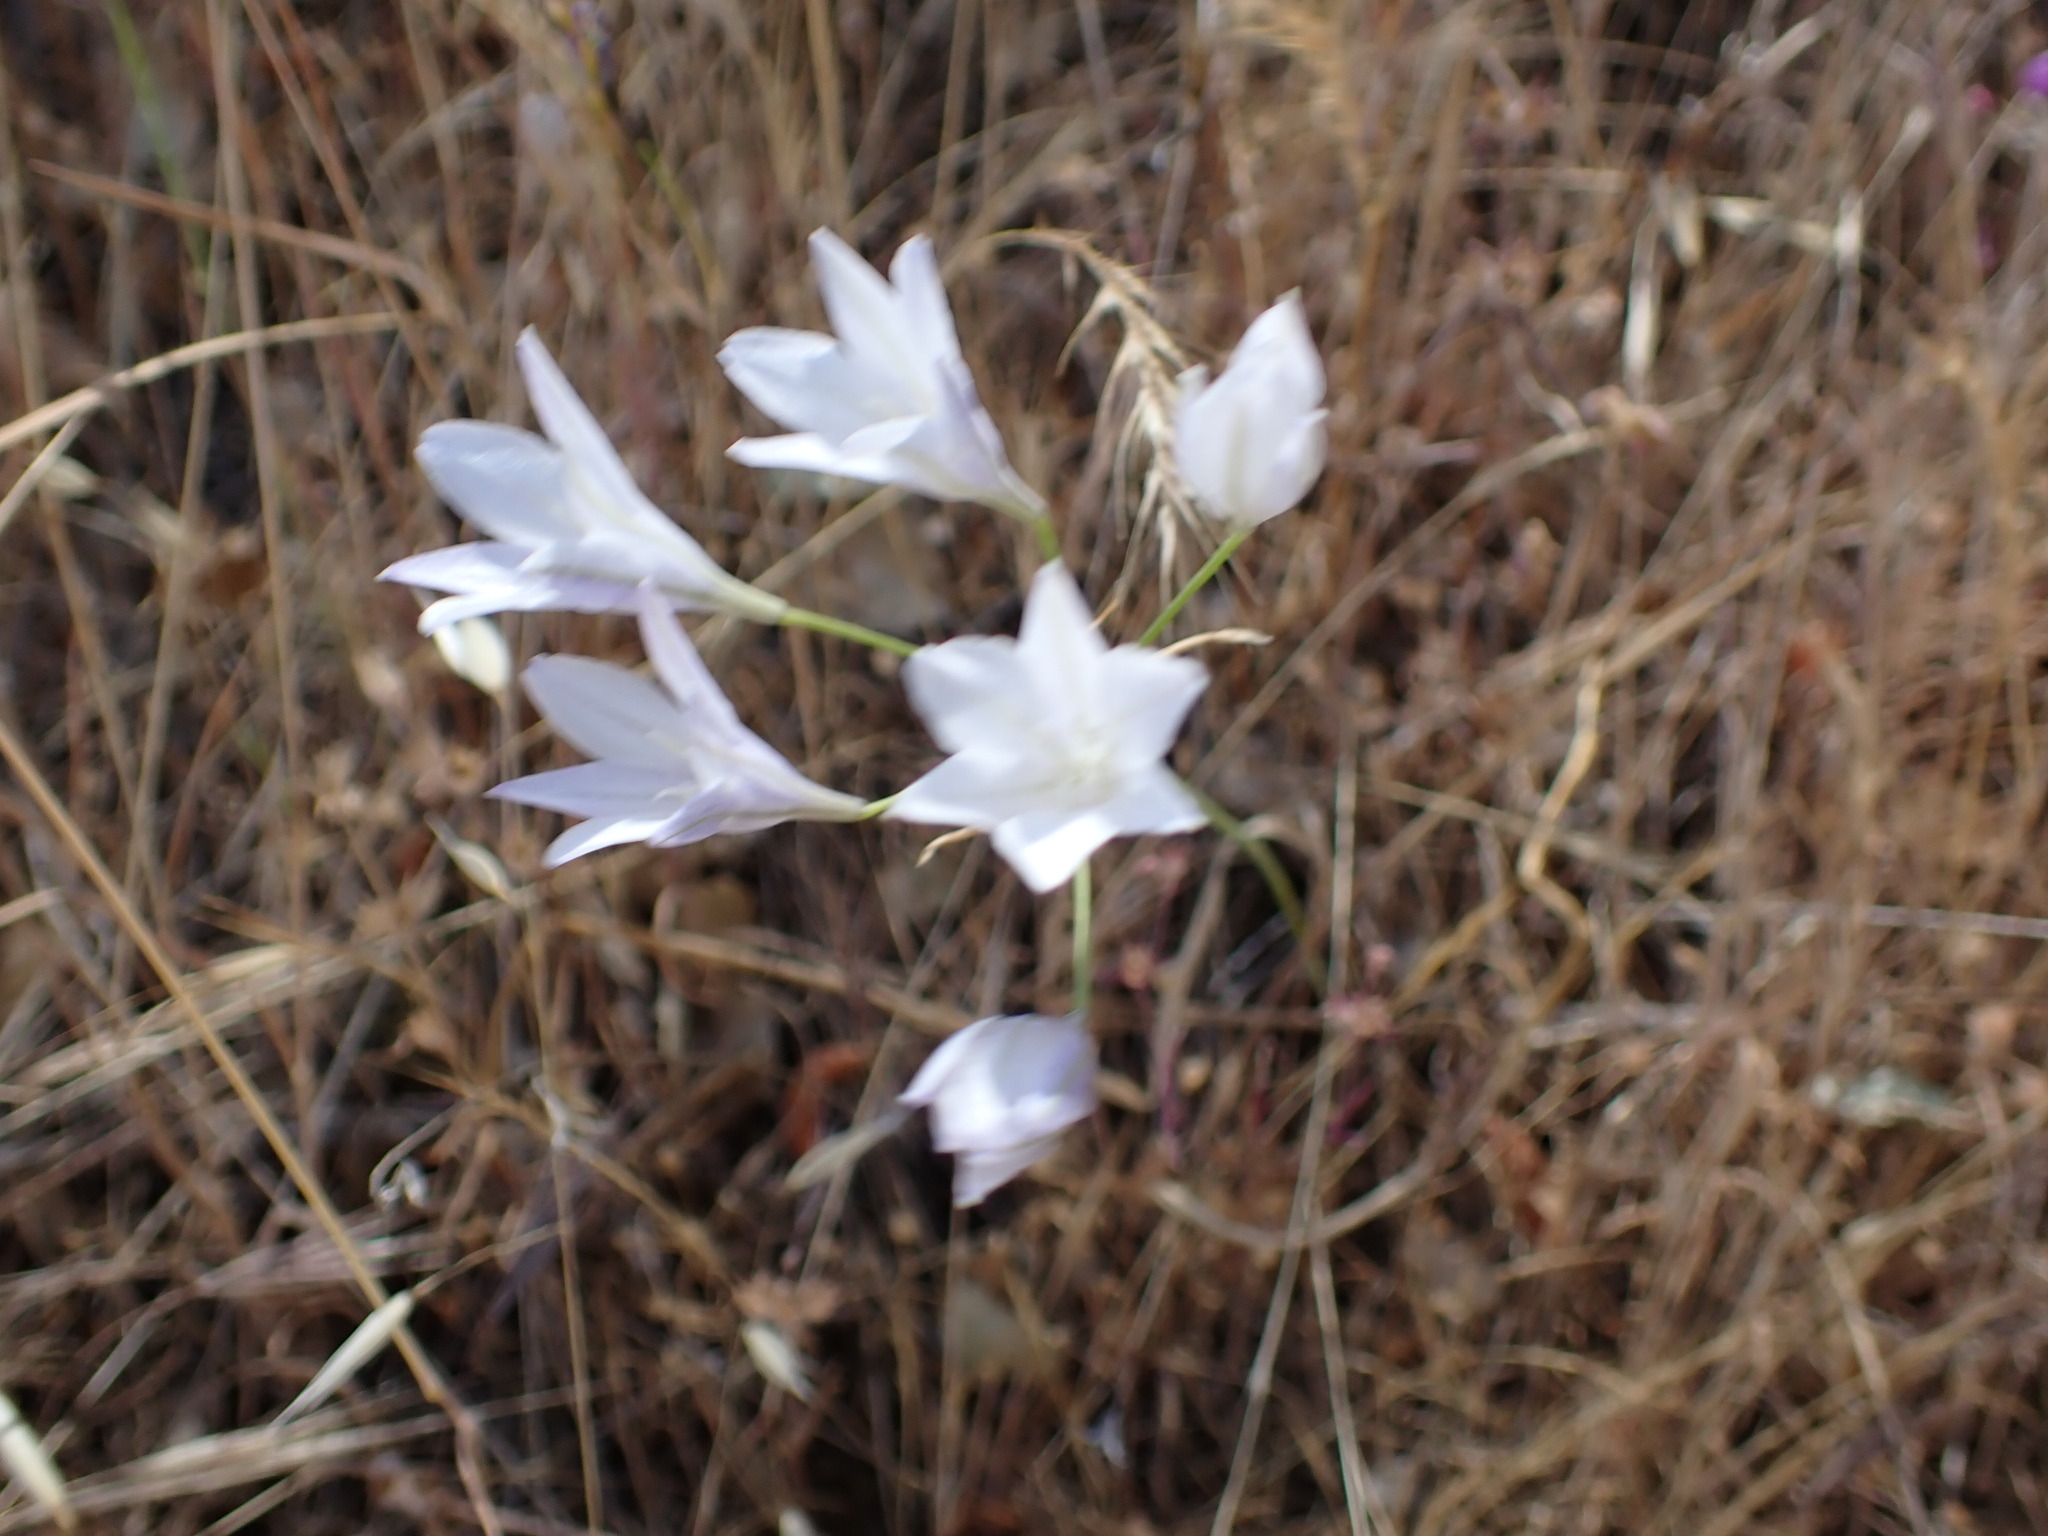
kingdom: Plantae
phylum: Tracheophyta
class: Liliopsida
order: Asparagales
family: Asparagaceae
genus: Triteleia
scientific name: Triteleia laxa
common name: Triplet-lily
